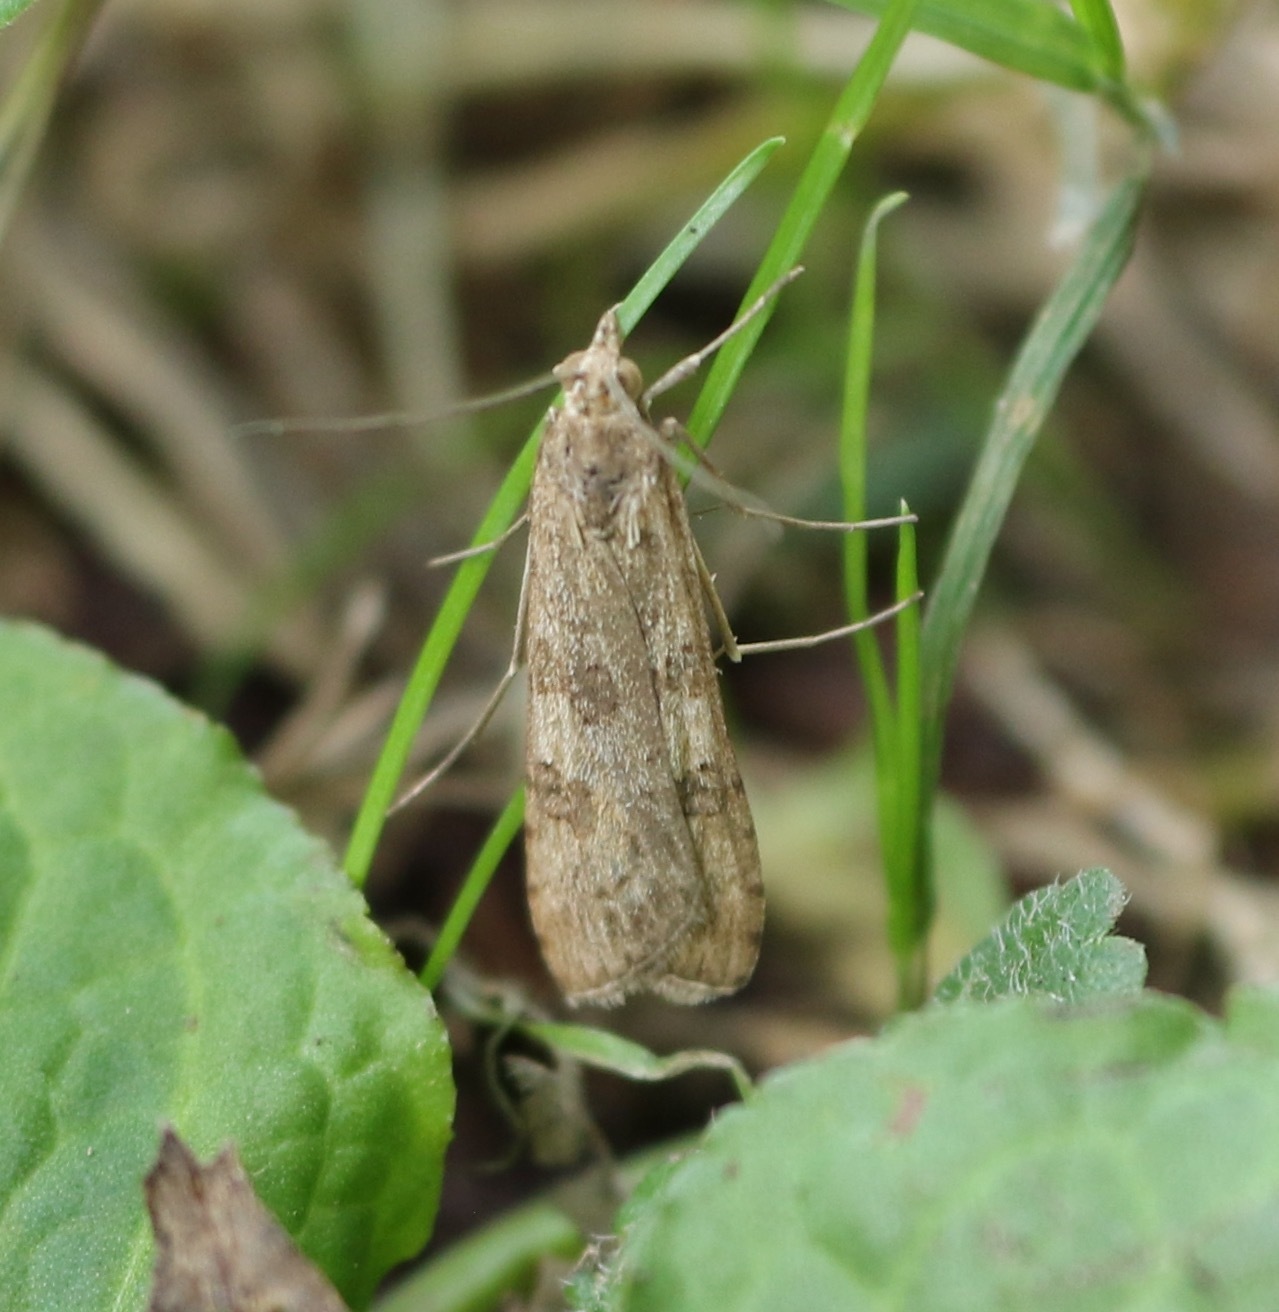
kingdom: Animalia
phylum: Arthropoda
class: Insecta
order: Lepidoptera
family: Crambidae
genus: Nomophila
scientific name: Nomophila noctuella
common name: Rush veneer
